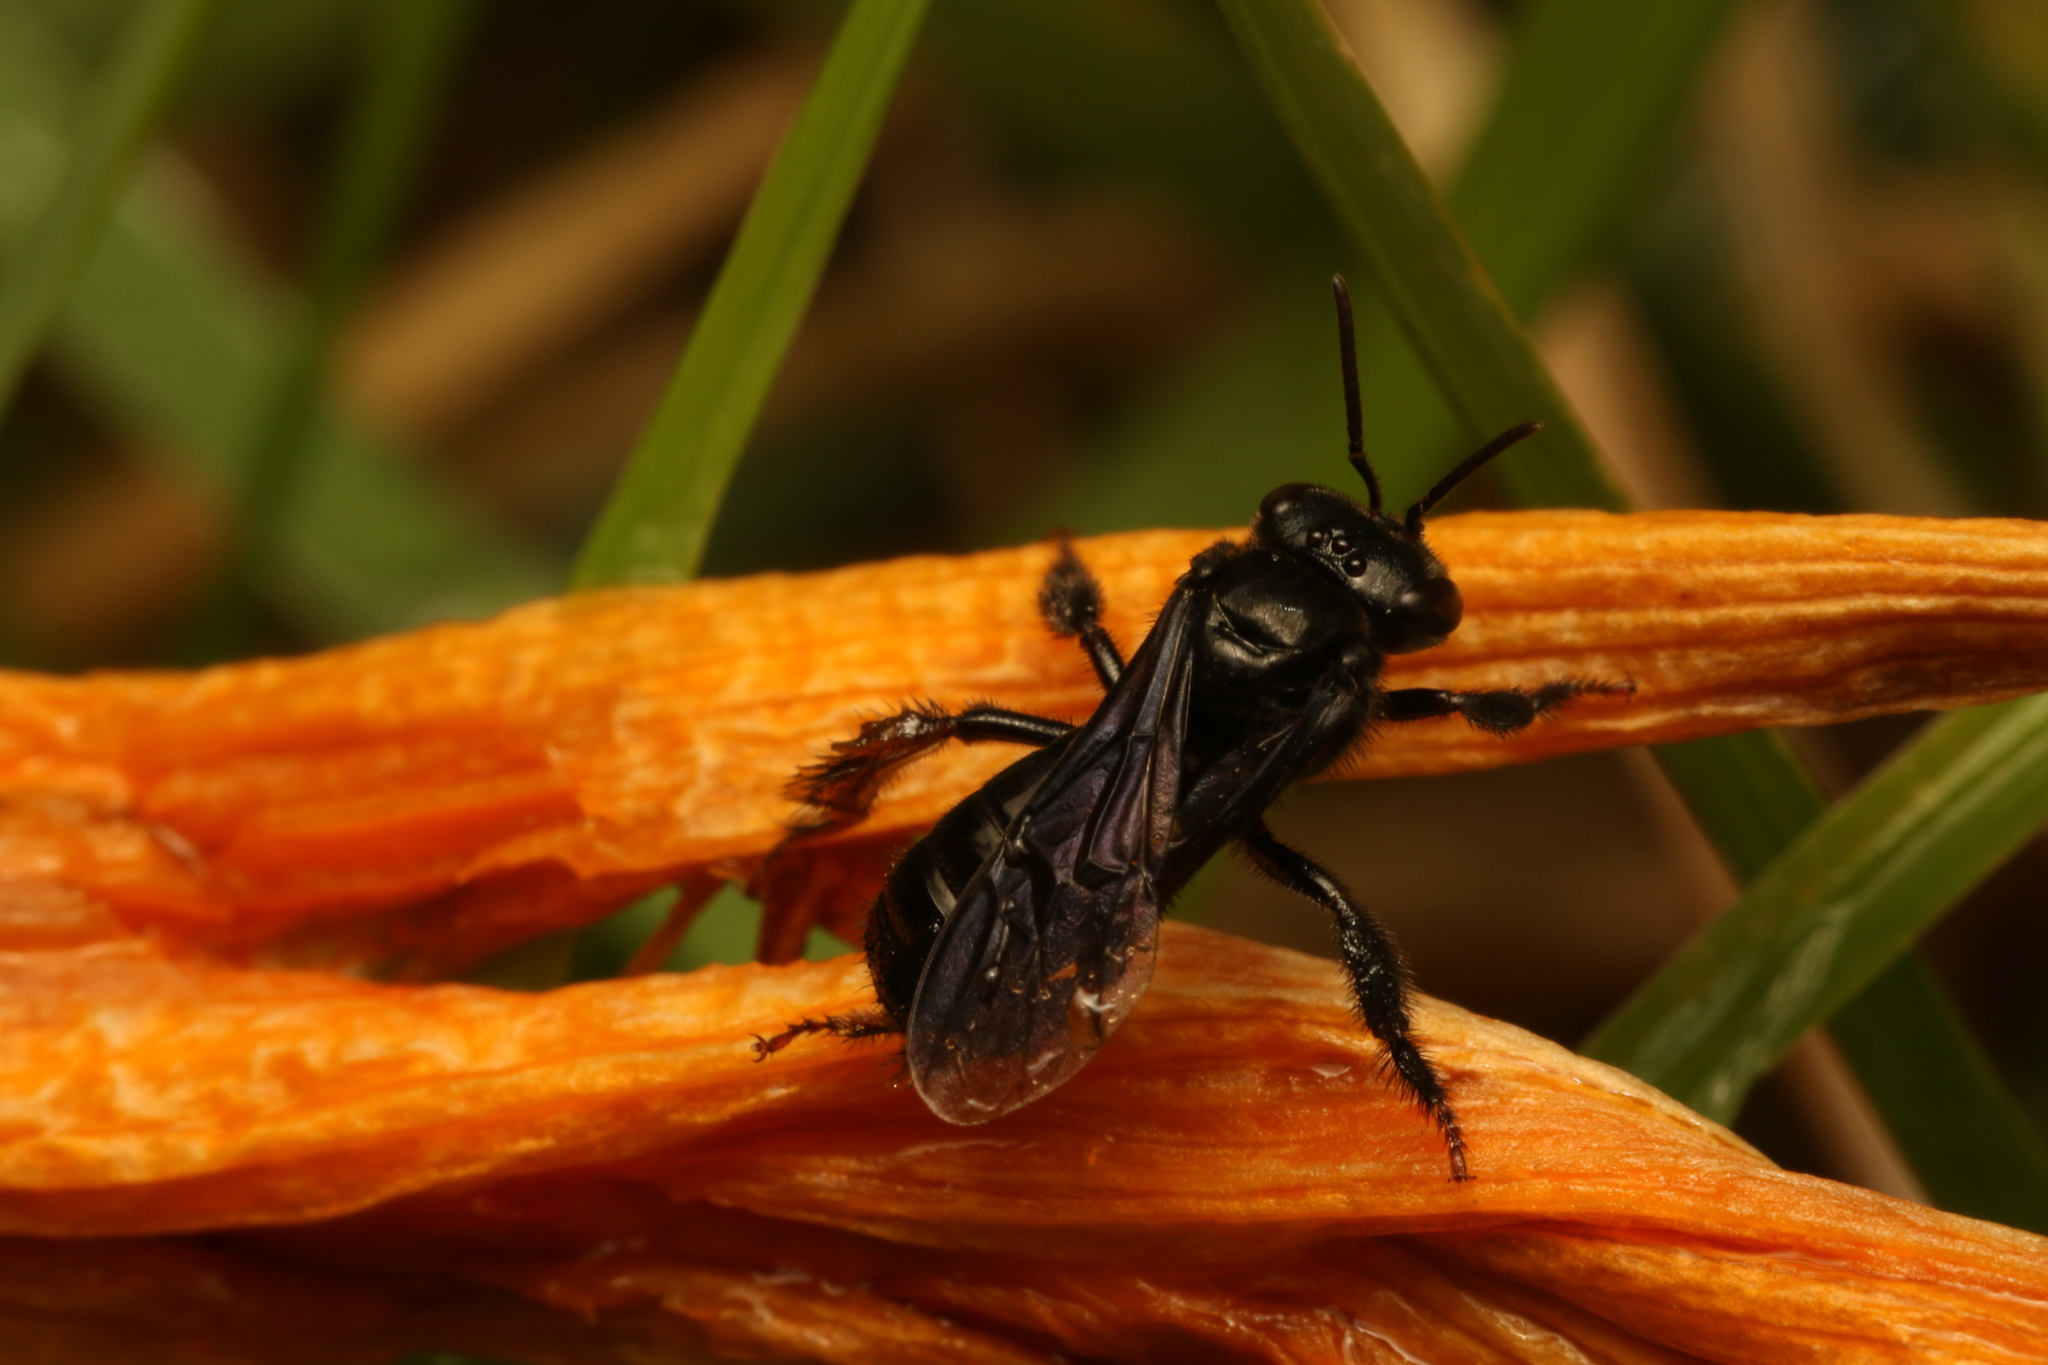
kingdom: Animalia
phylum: Arthropoda
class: Insecta
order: Hymenoptera
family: Apidae
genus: Trigona
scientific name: Trigona spinipes
